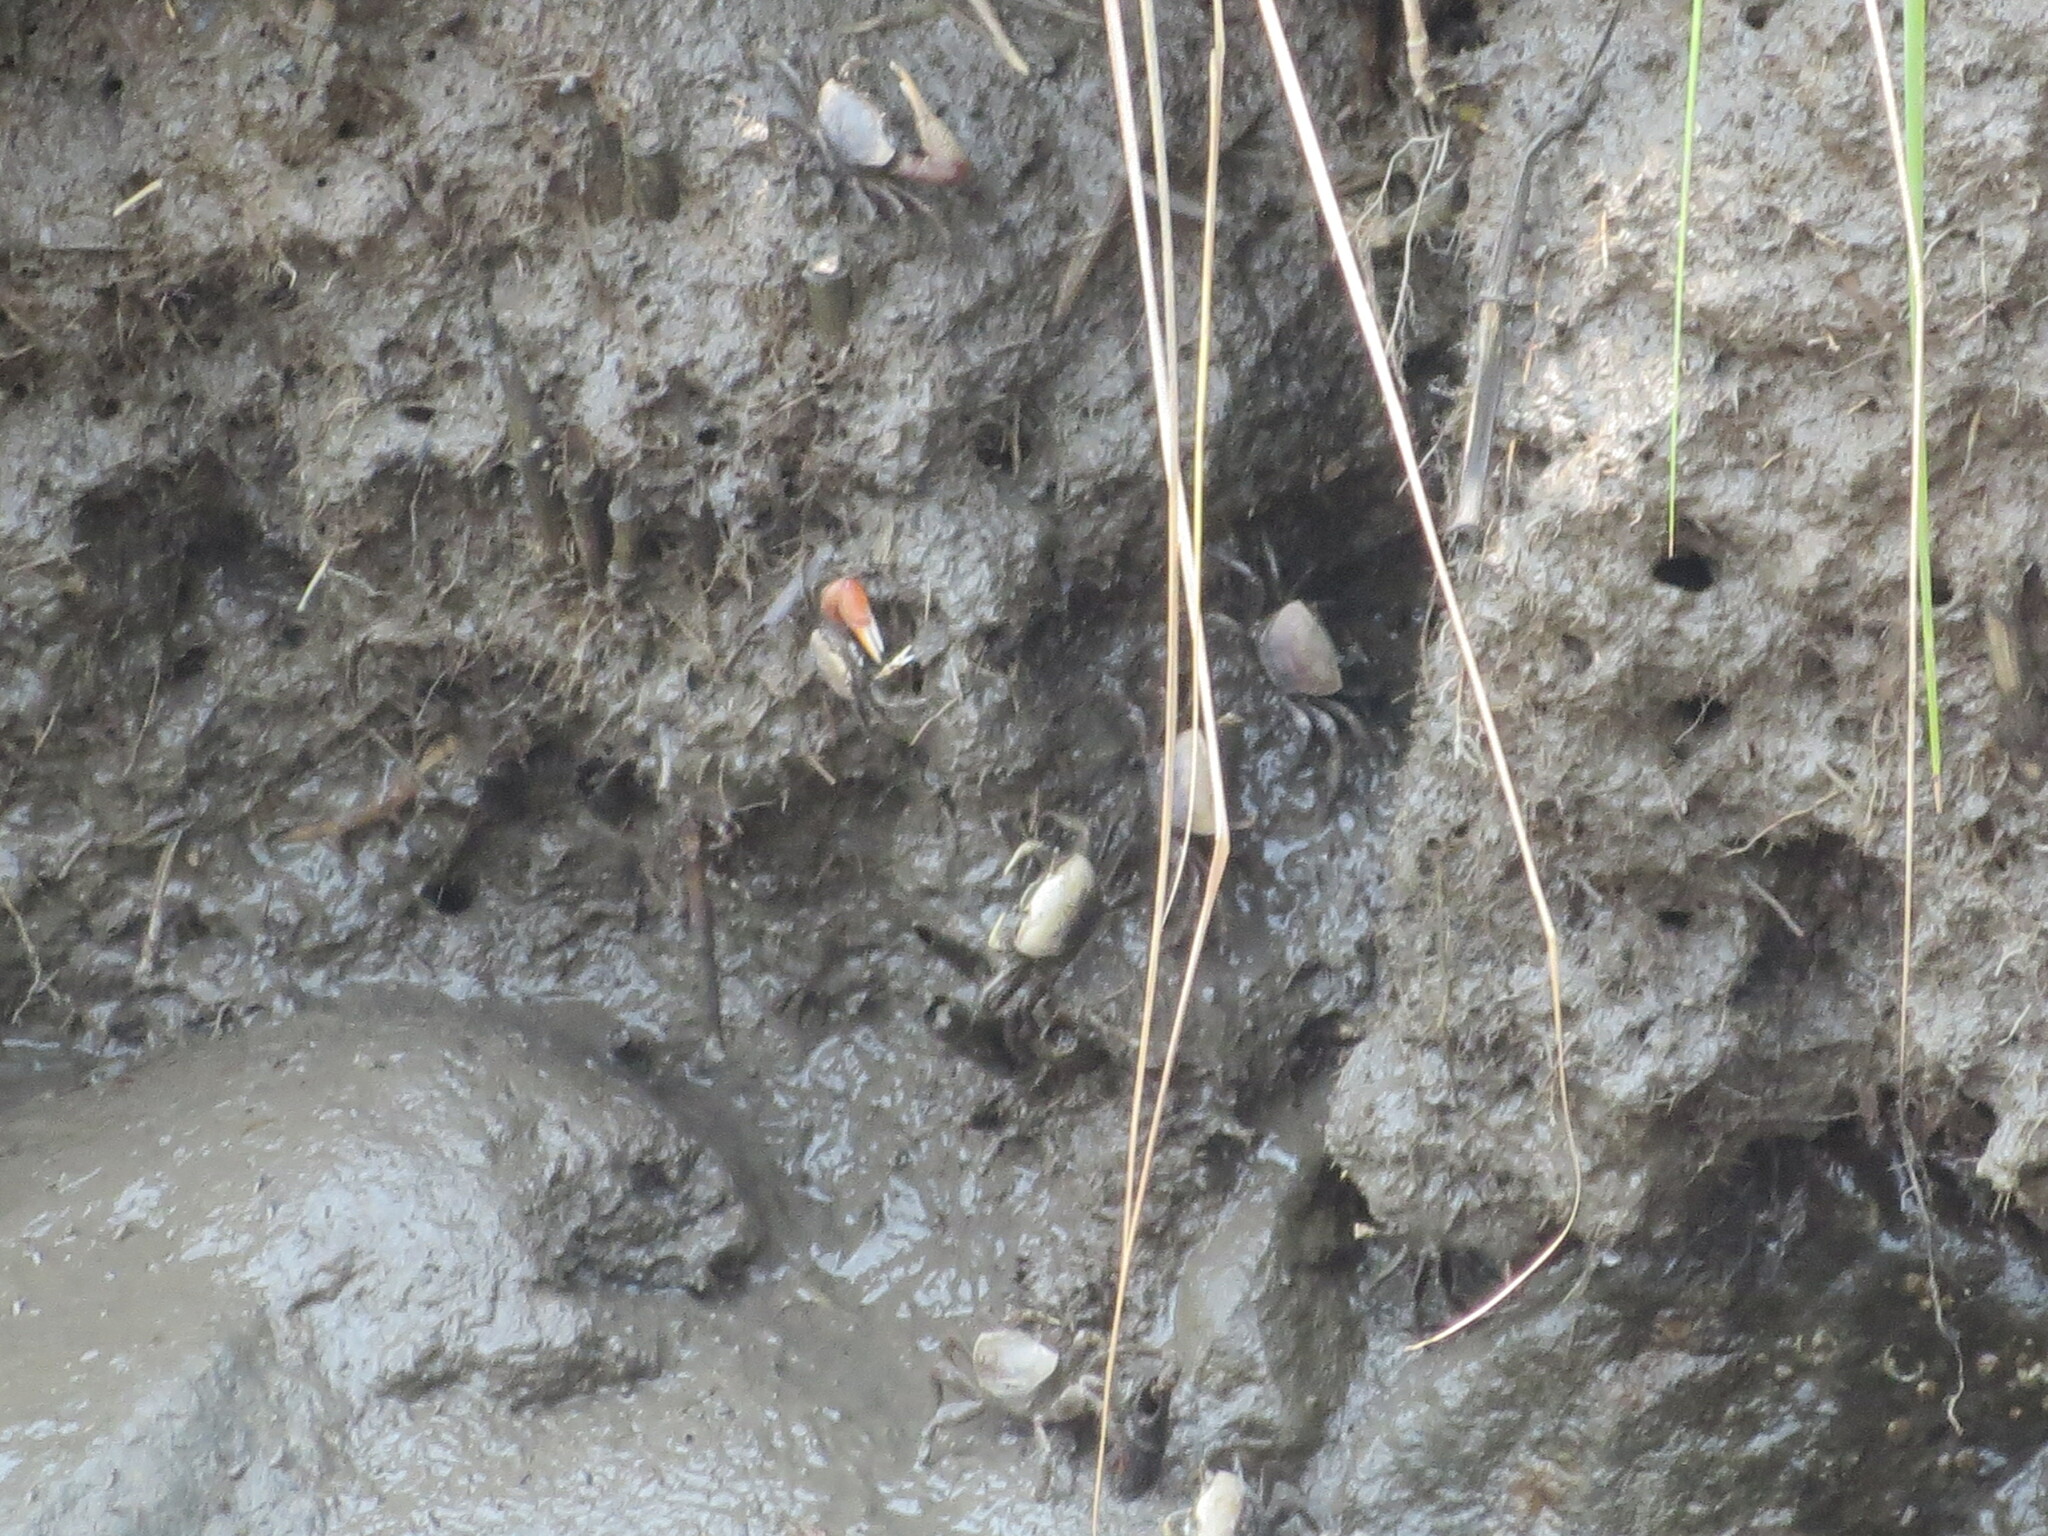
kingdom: Animalia
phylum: Arthropoda
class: Malacostraca
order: Decapoda
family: Ocypodidae
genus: Minuca
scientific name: Minuca minax
